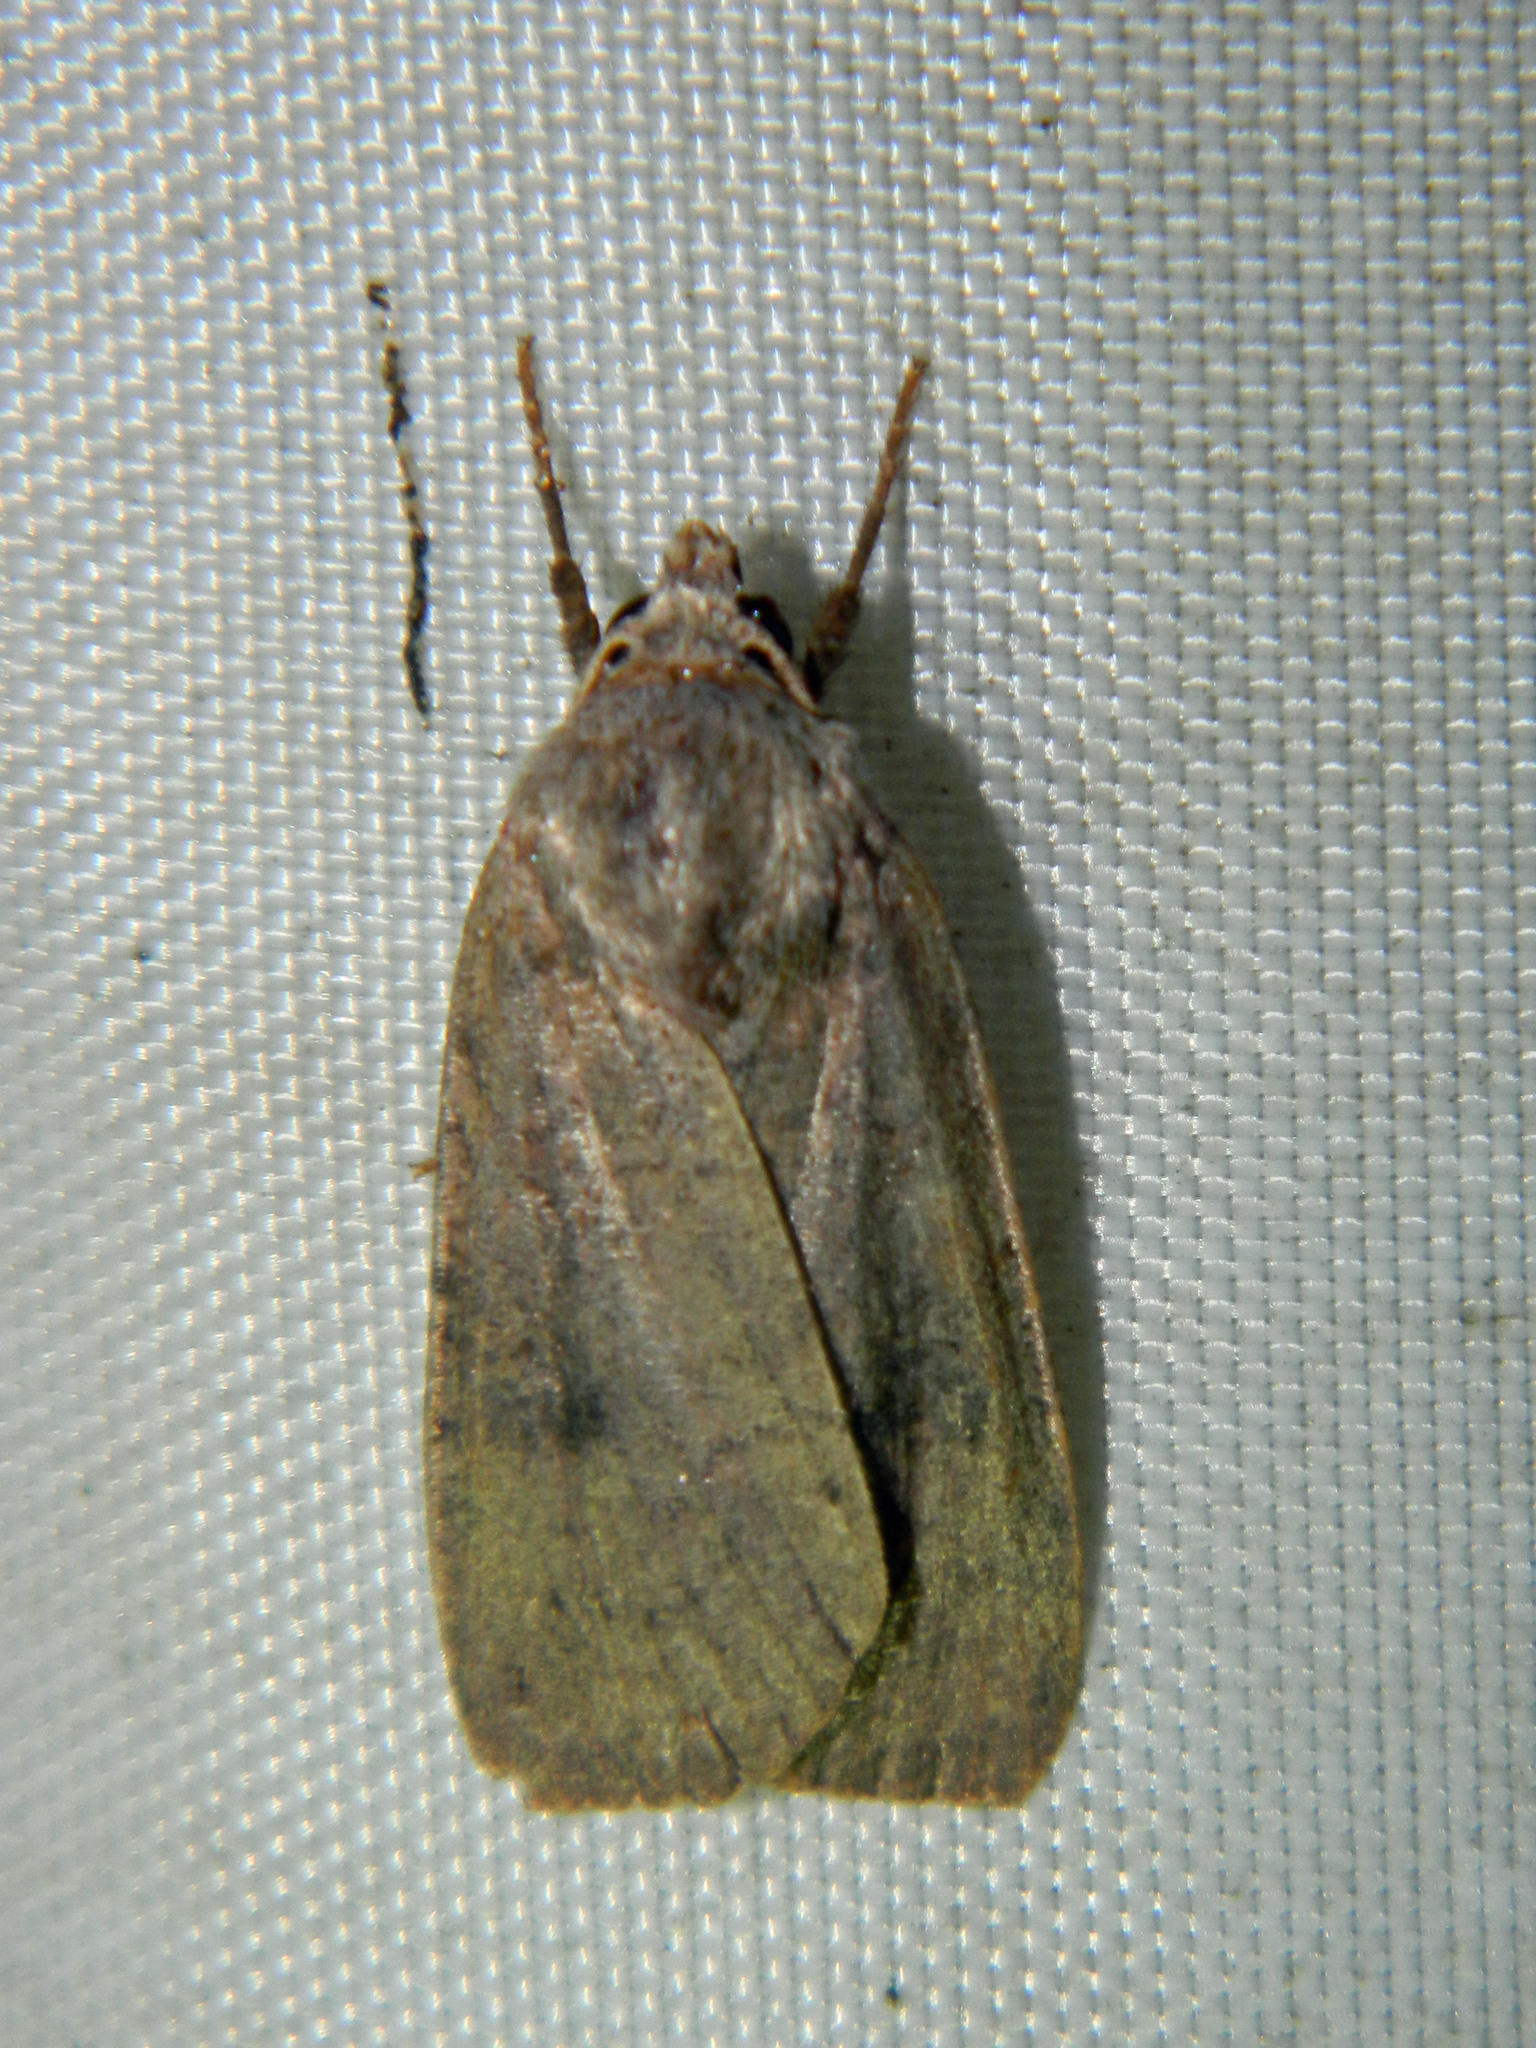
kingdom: Animalia
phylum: Arthropoda
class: Insecta
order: Lepidoptera
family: Noctuidae
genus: Xestia
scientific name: Xestia smithii
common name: Smith's dart
